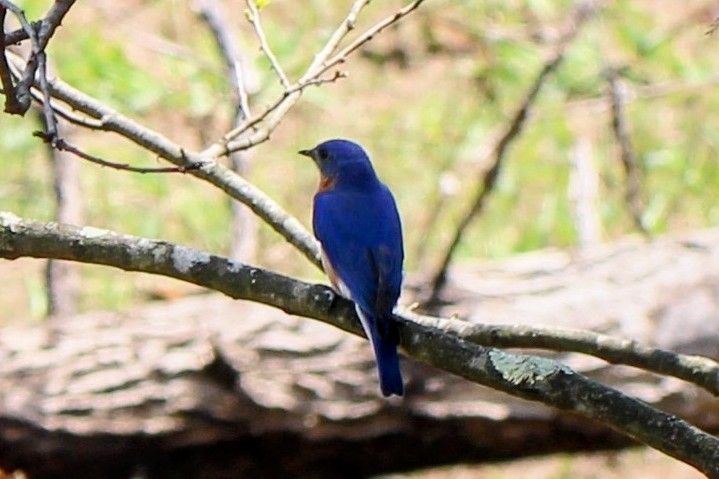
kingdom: Animalia
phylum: Chordata
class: Aves
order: Passeriformes
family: Turdidae
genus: Sialia
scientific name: Sialia sialis
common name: Eastern bluebird
